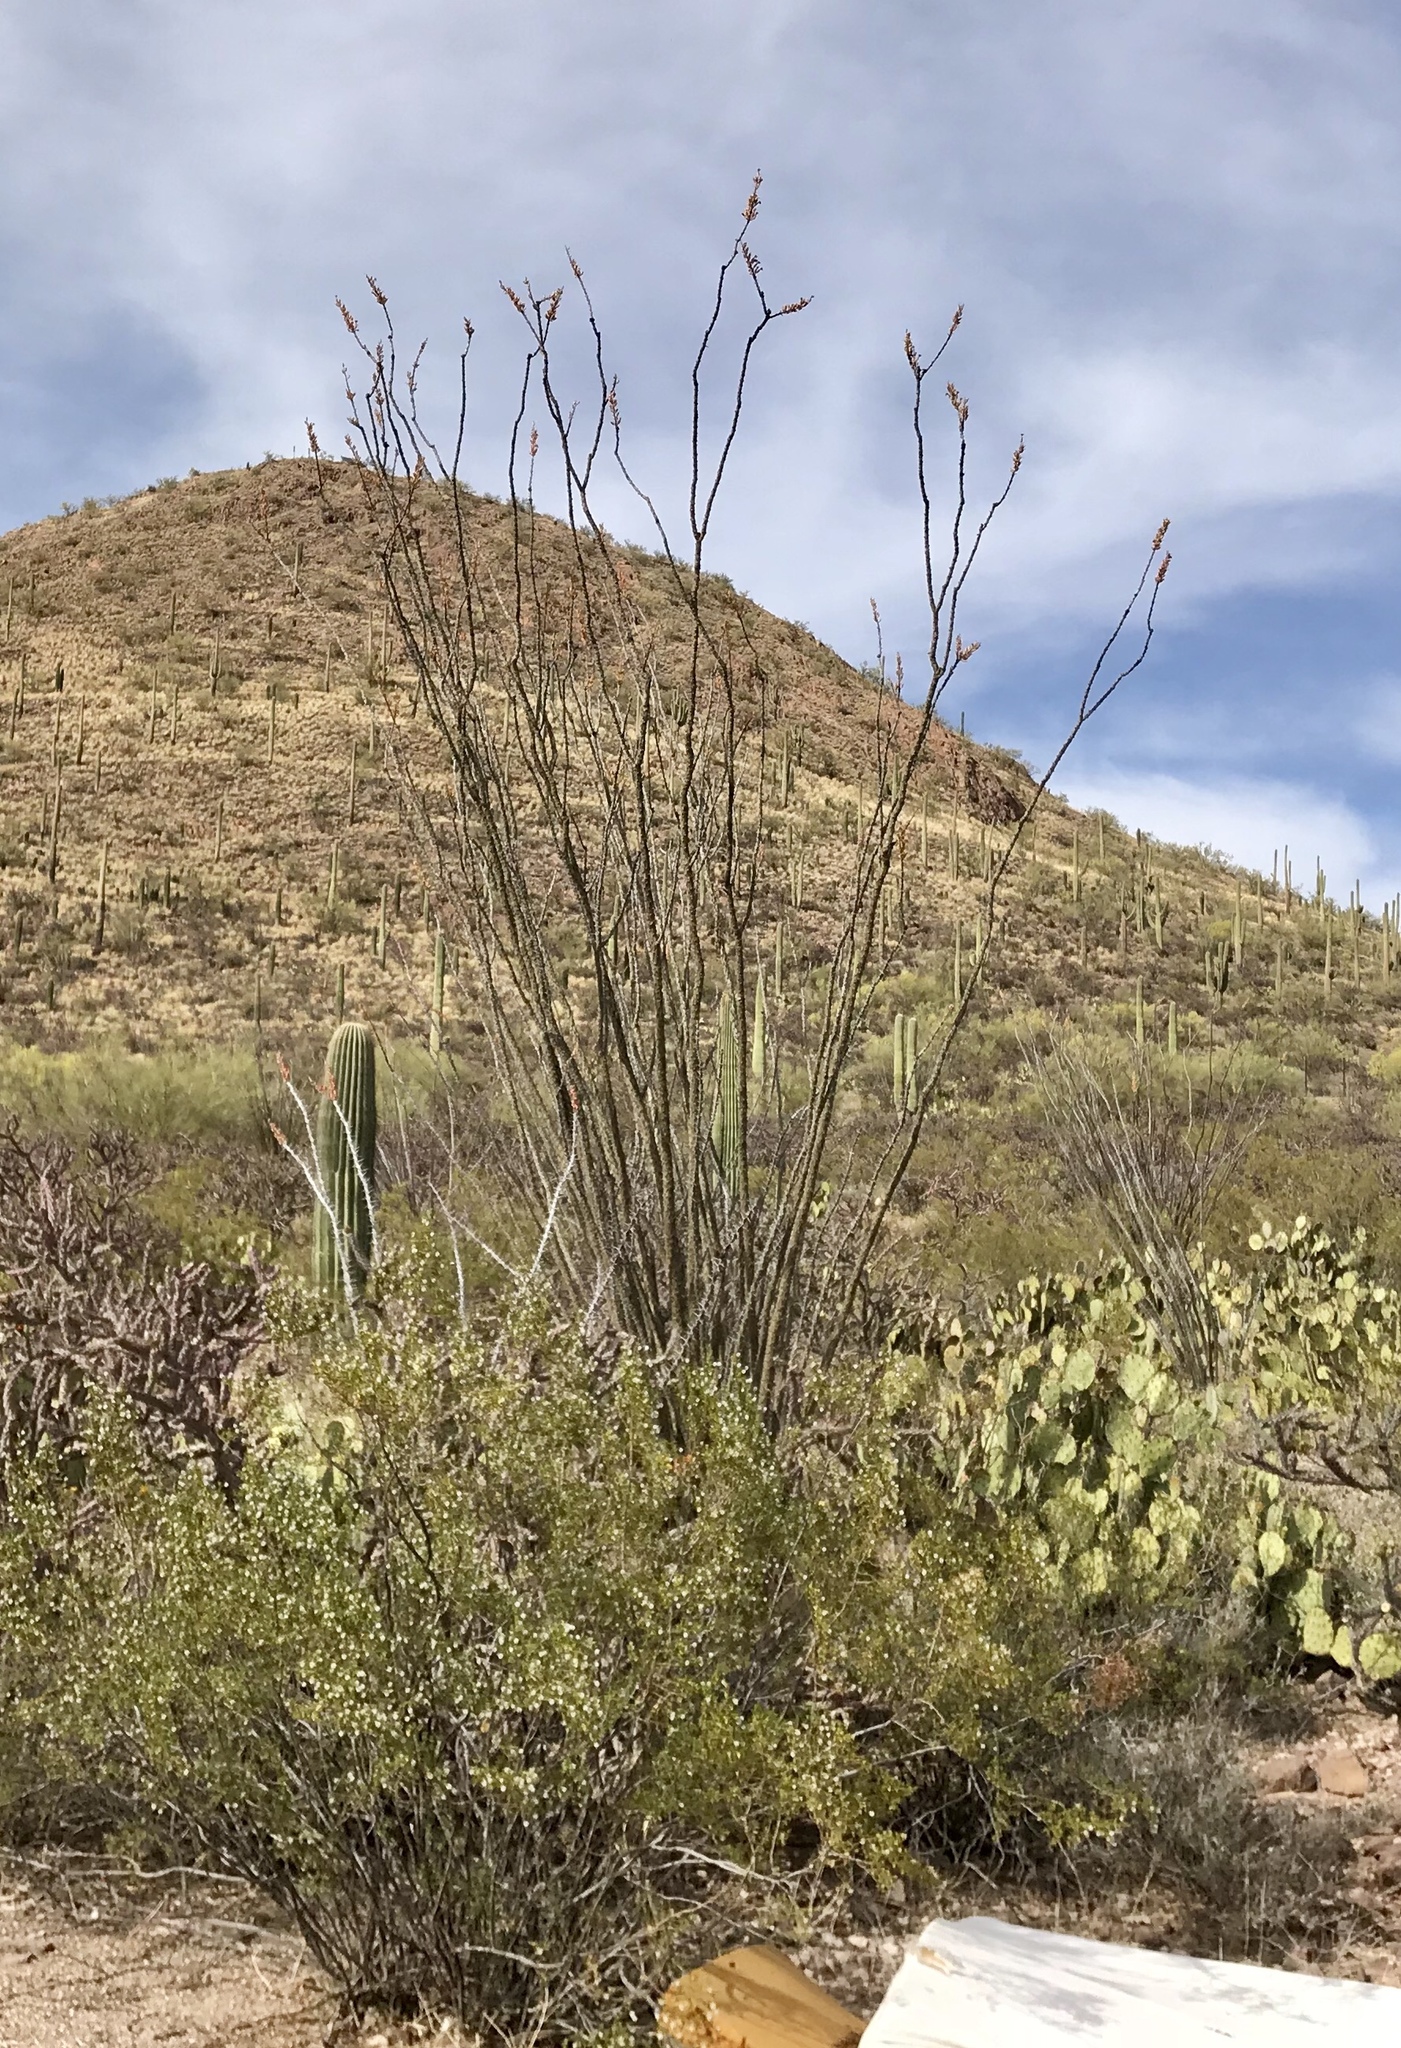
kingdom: Plantae
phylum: Tracheophyta
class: Magnoliopsida
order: Ericales
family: Fouquieriaceae
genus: Fouquieria
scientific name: Fouquieria splendens
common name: Vine-cactus
